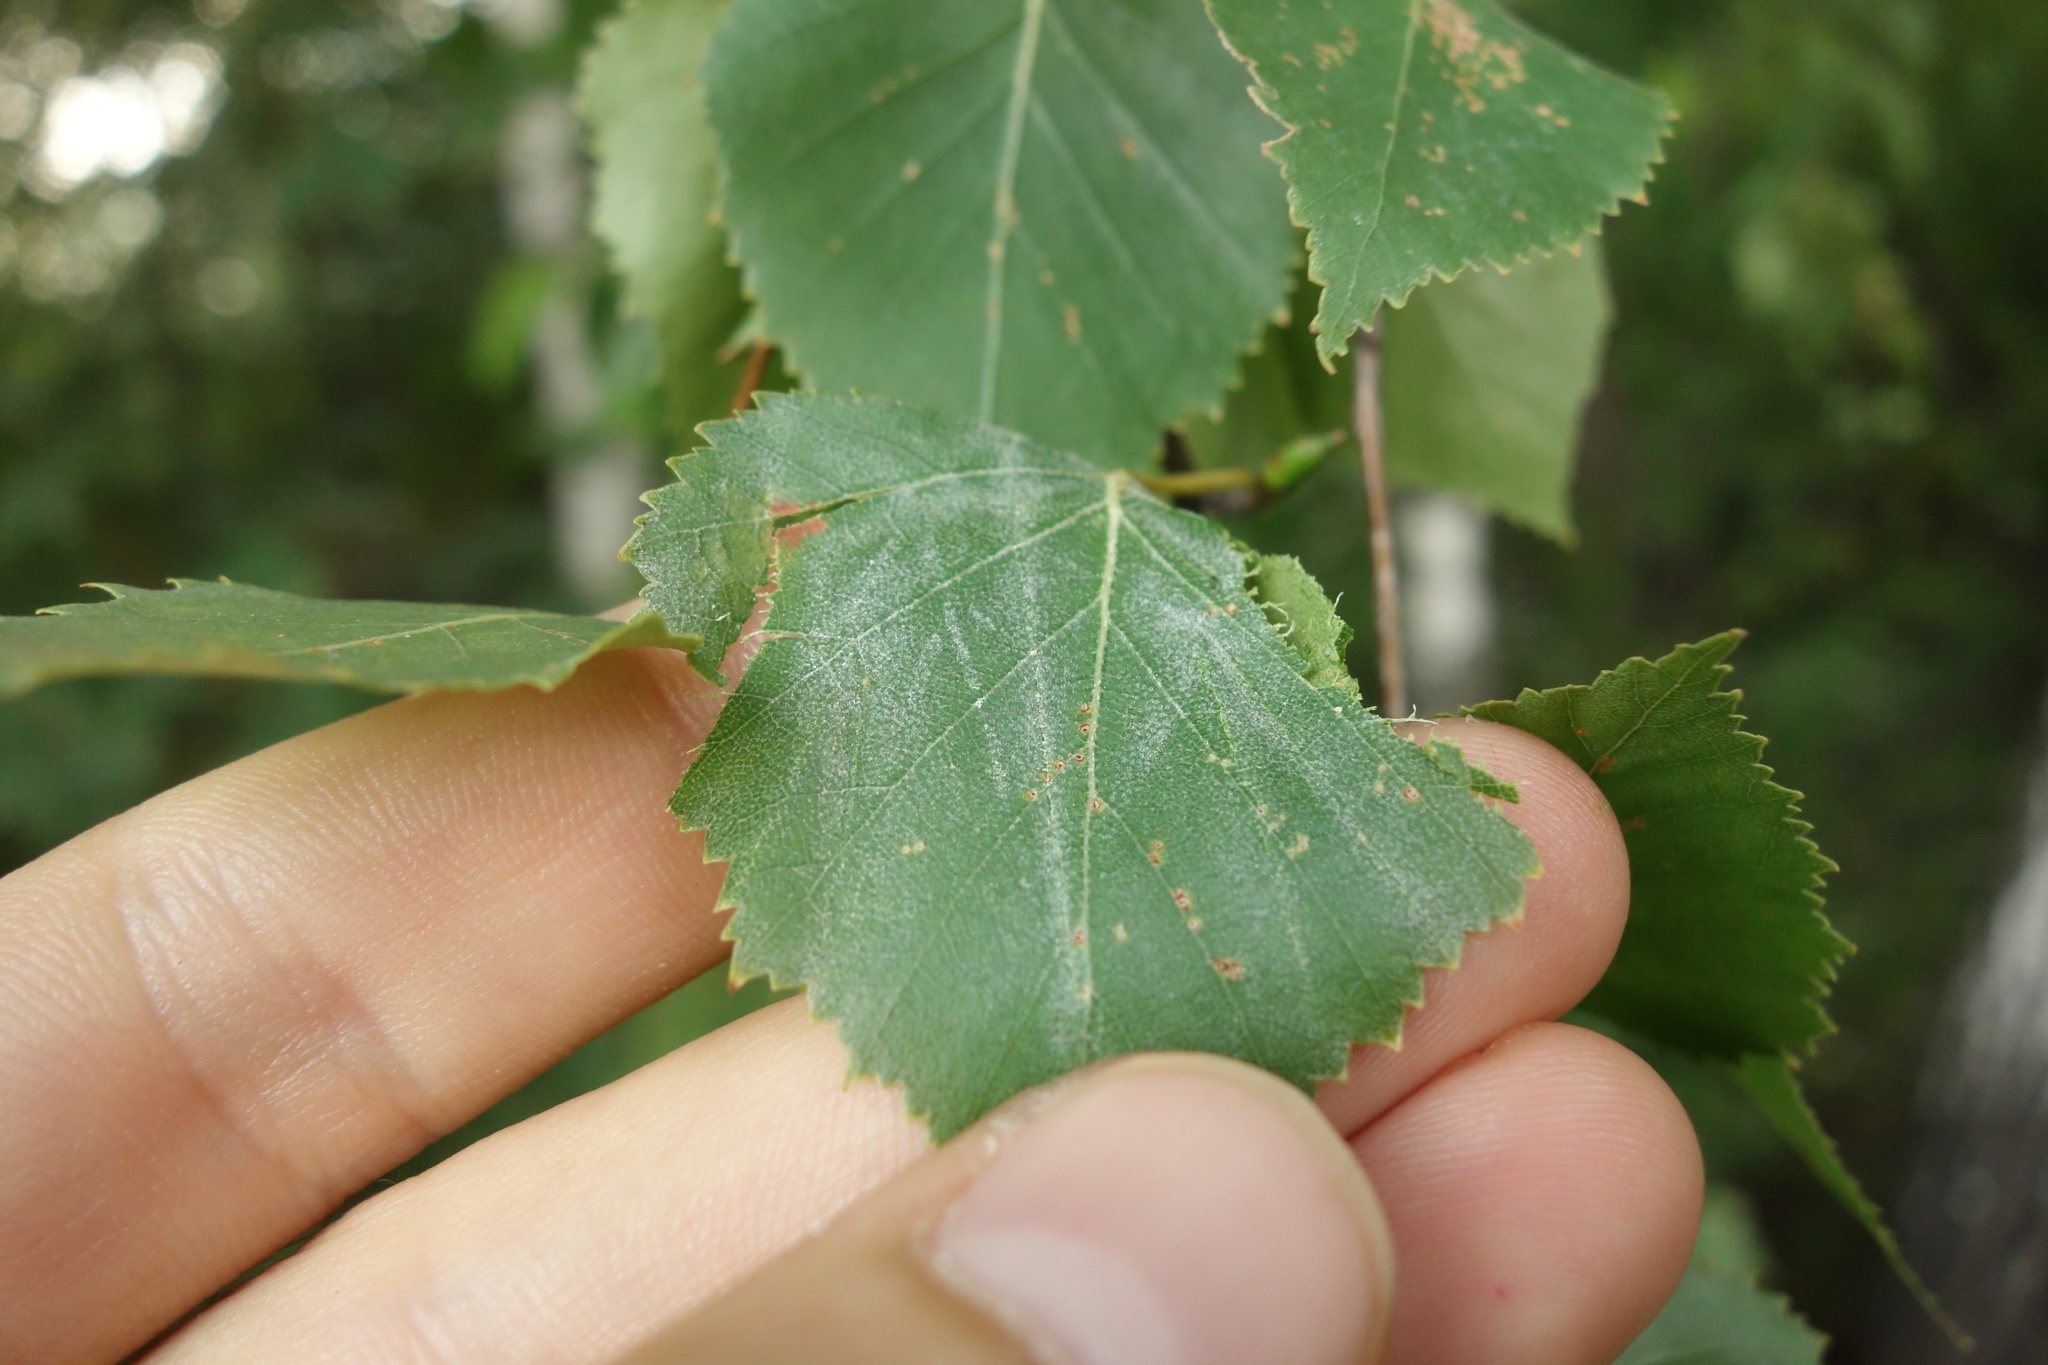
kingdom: Plantae
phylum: Tracheophyta
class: Magnoliopsida
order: Fagales
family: Betulaceae
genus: Betula
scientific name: Betula pendula
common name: Silver birch
